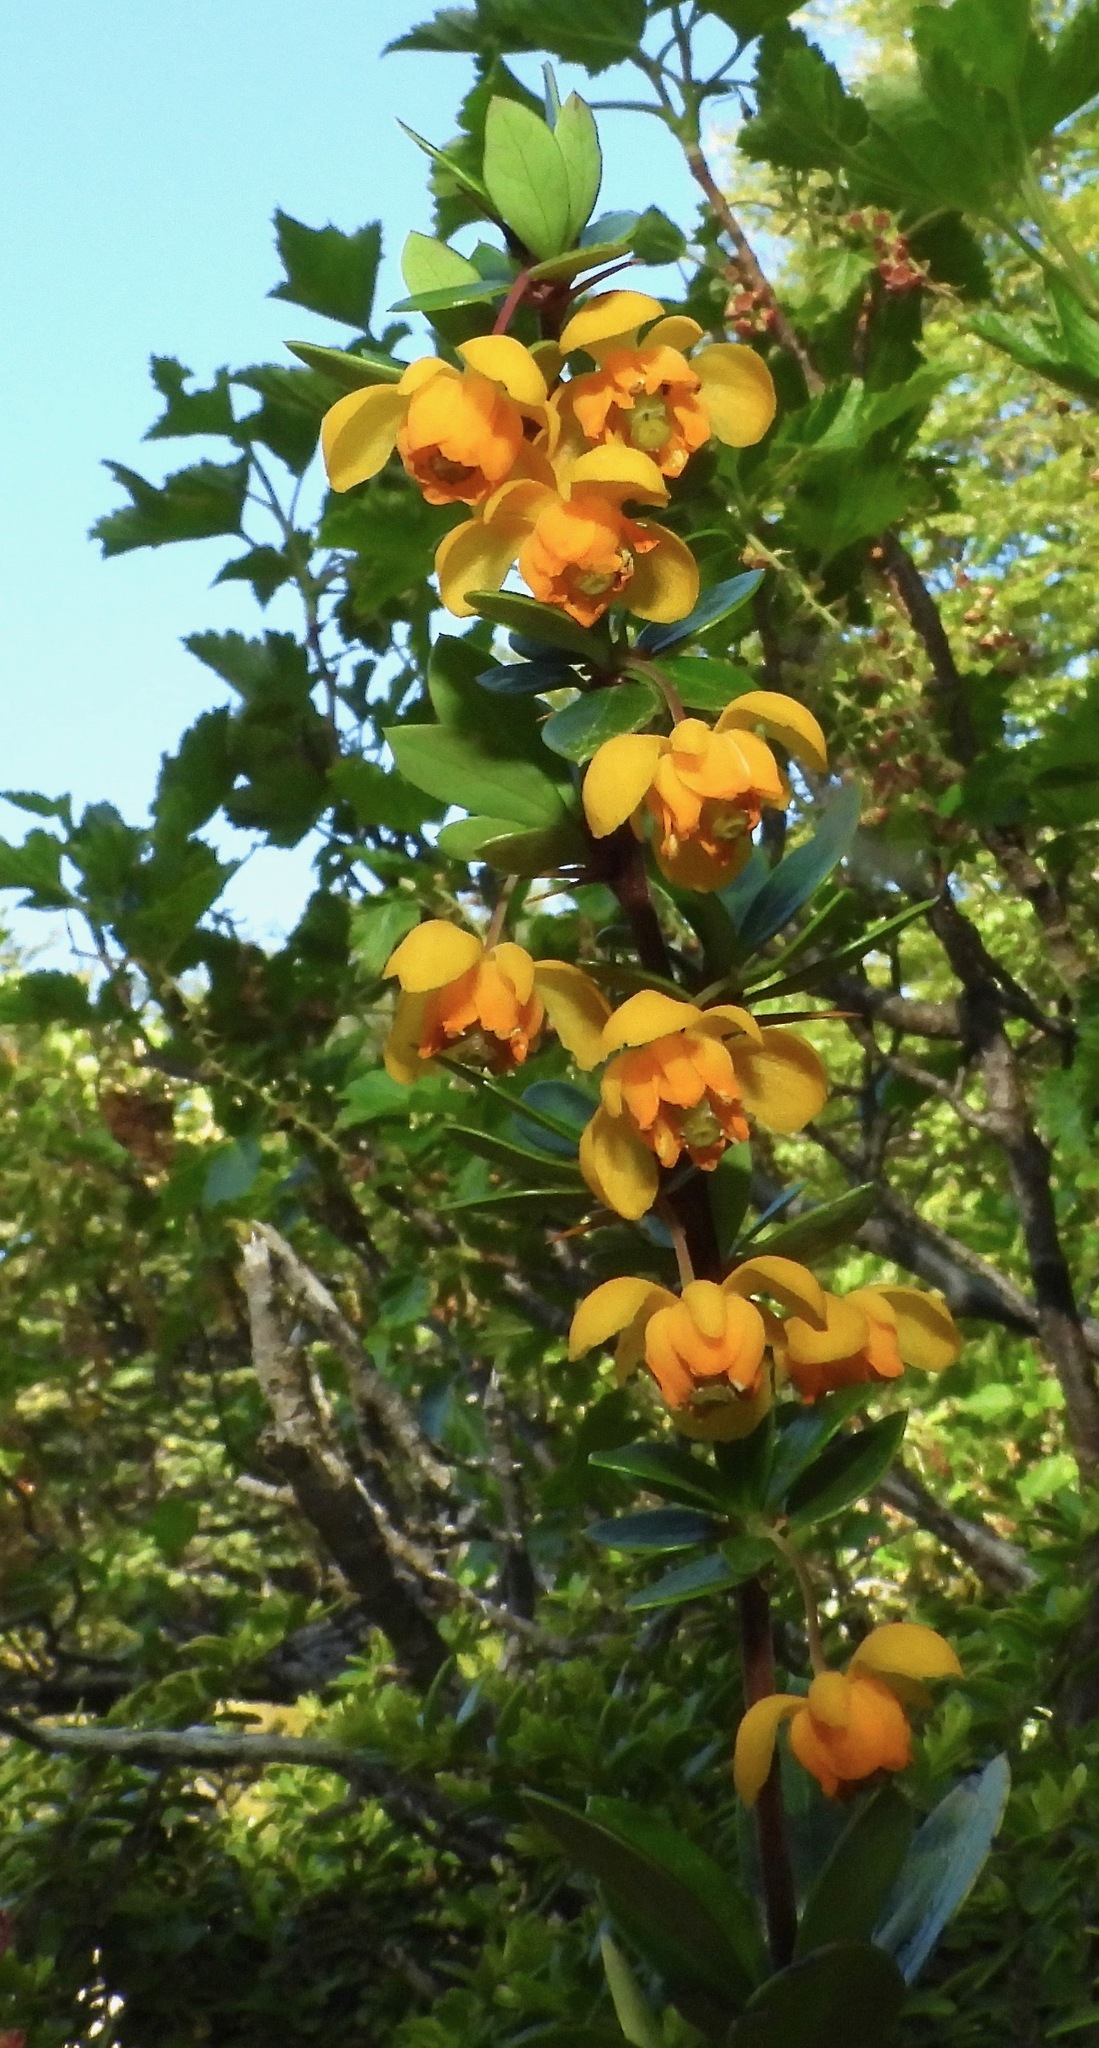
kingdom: Plantae
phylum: Tracheophyta
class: Magnoliopsida
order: Ranunculales
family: Berberidaceae
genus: Berberis
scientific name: Berberis microphylla
